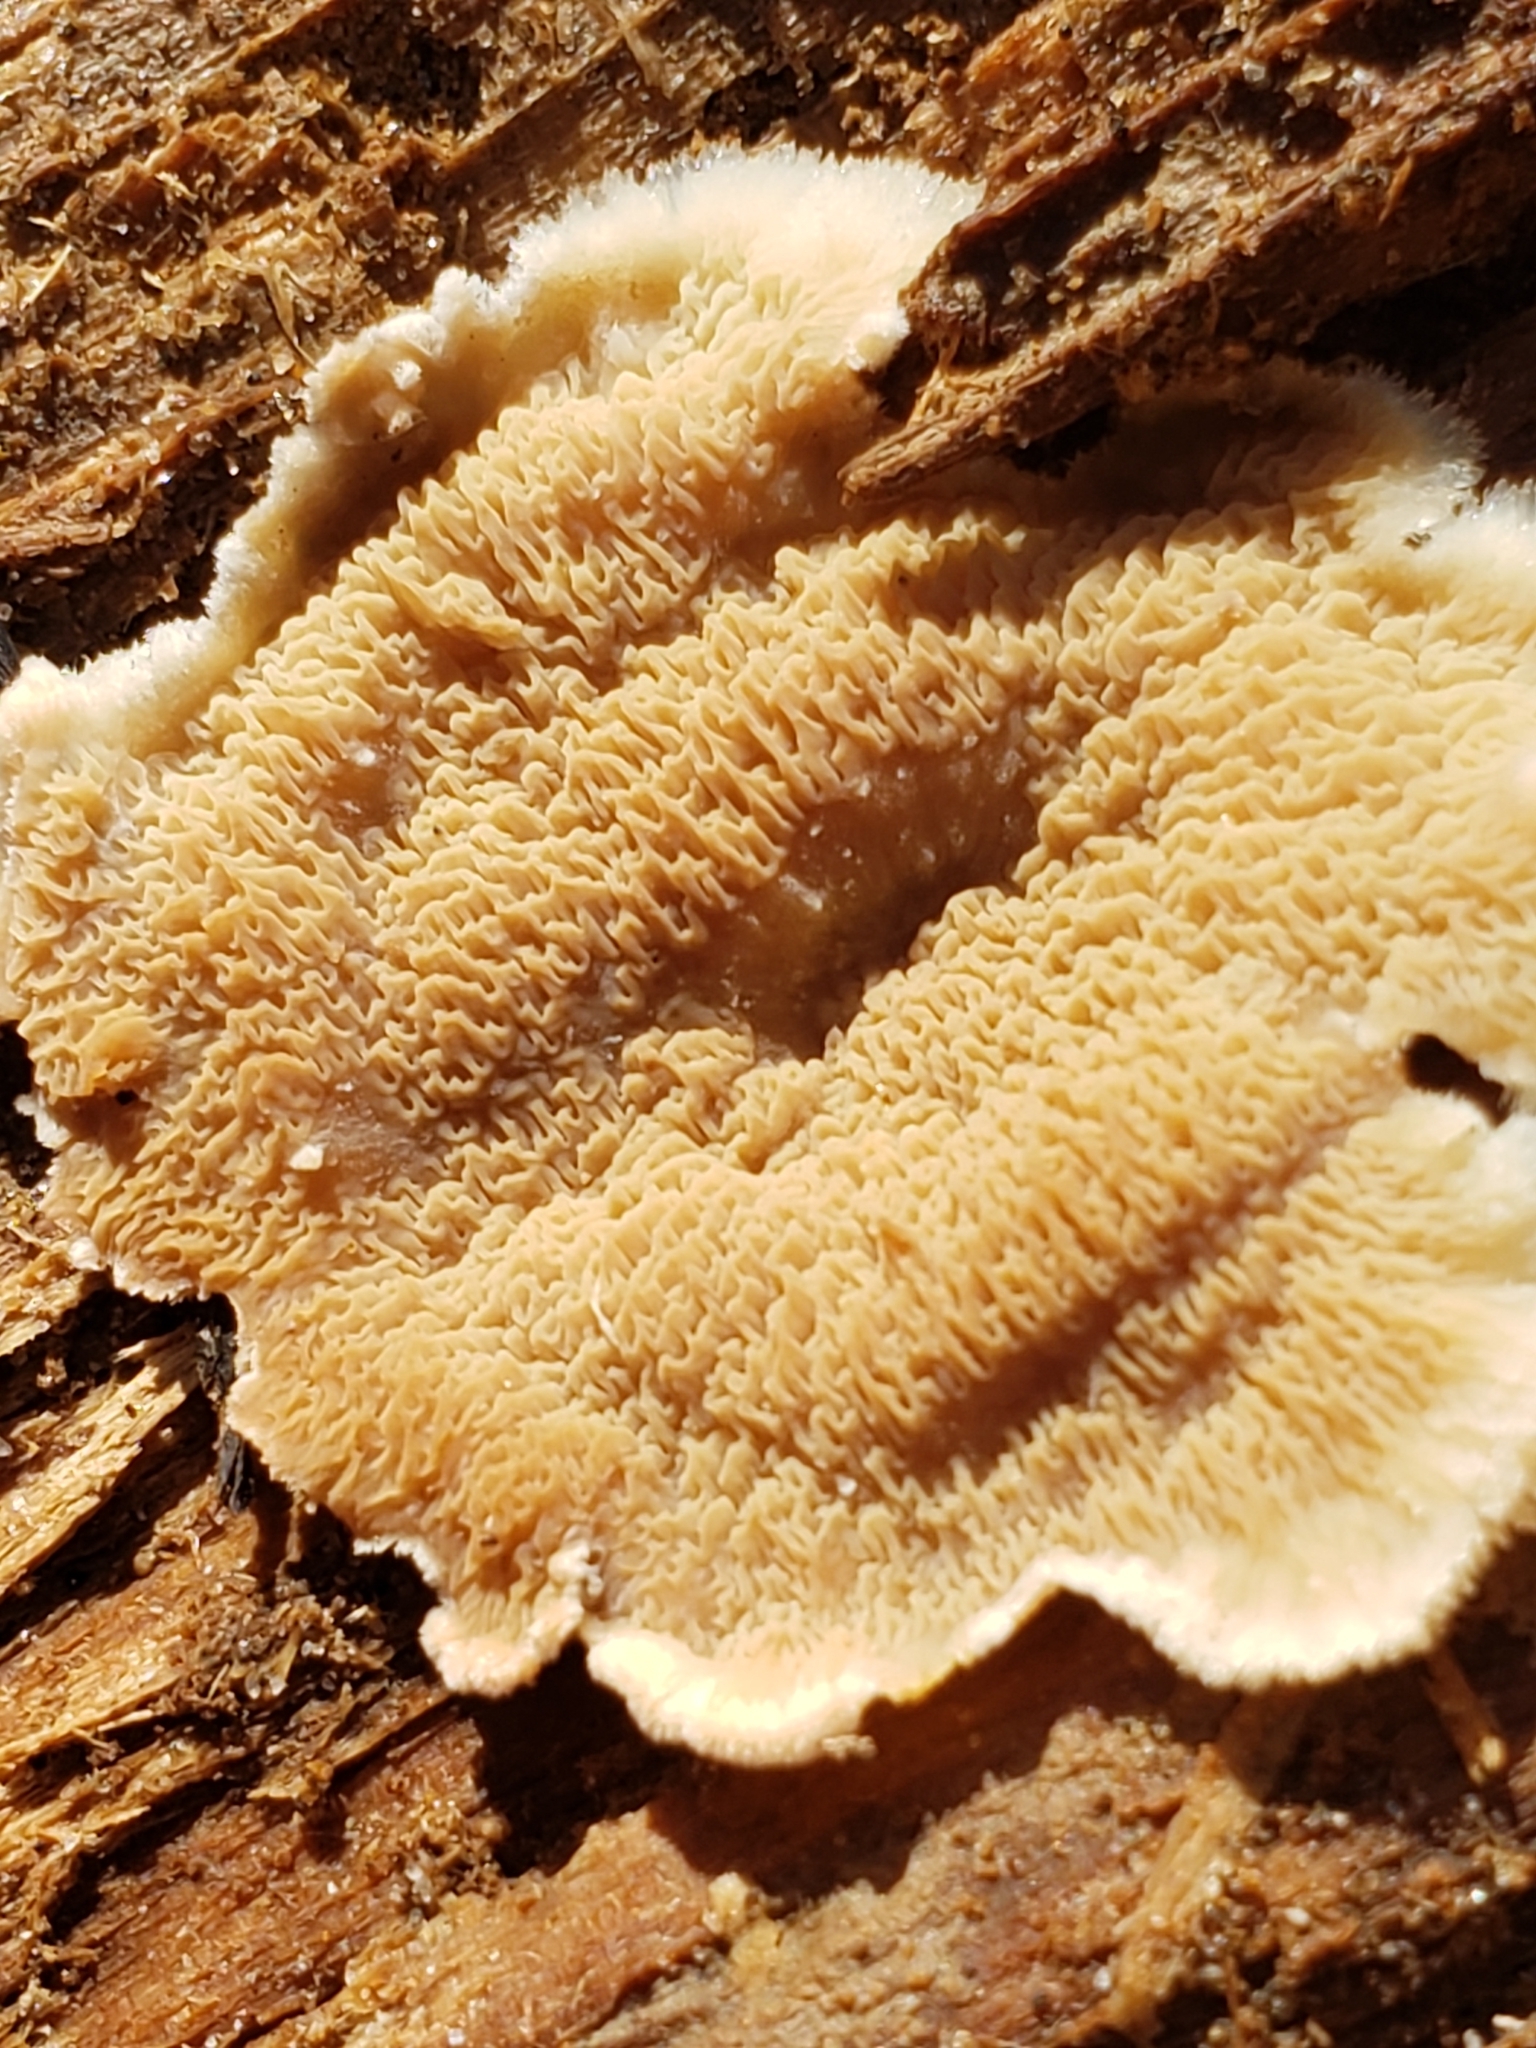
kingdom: Fungi
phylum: Basidiomycota
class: Agaricomycetes
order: Polyporales
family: Meruliaceae
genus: Phlebia
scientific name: Phlebia tremellosa
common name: Jelly rot
